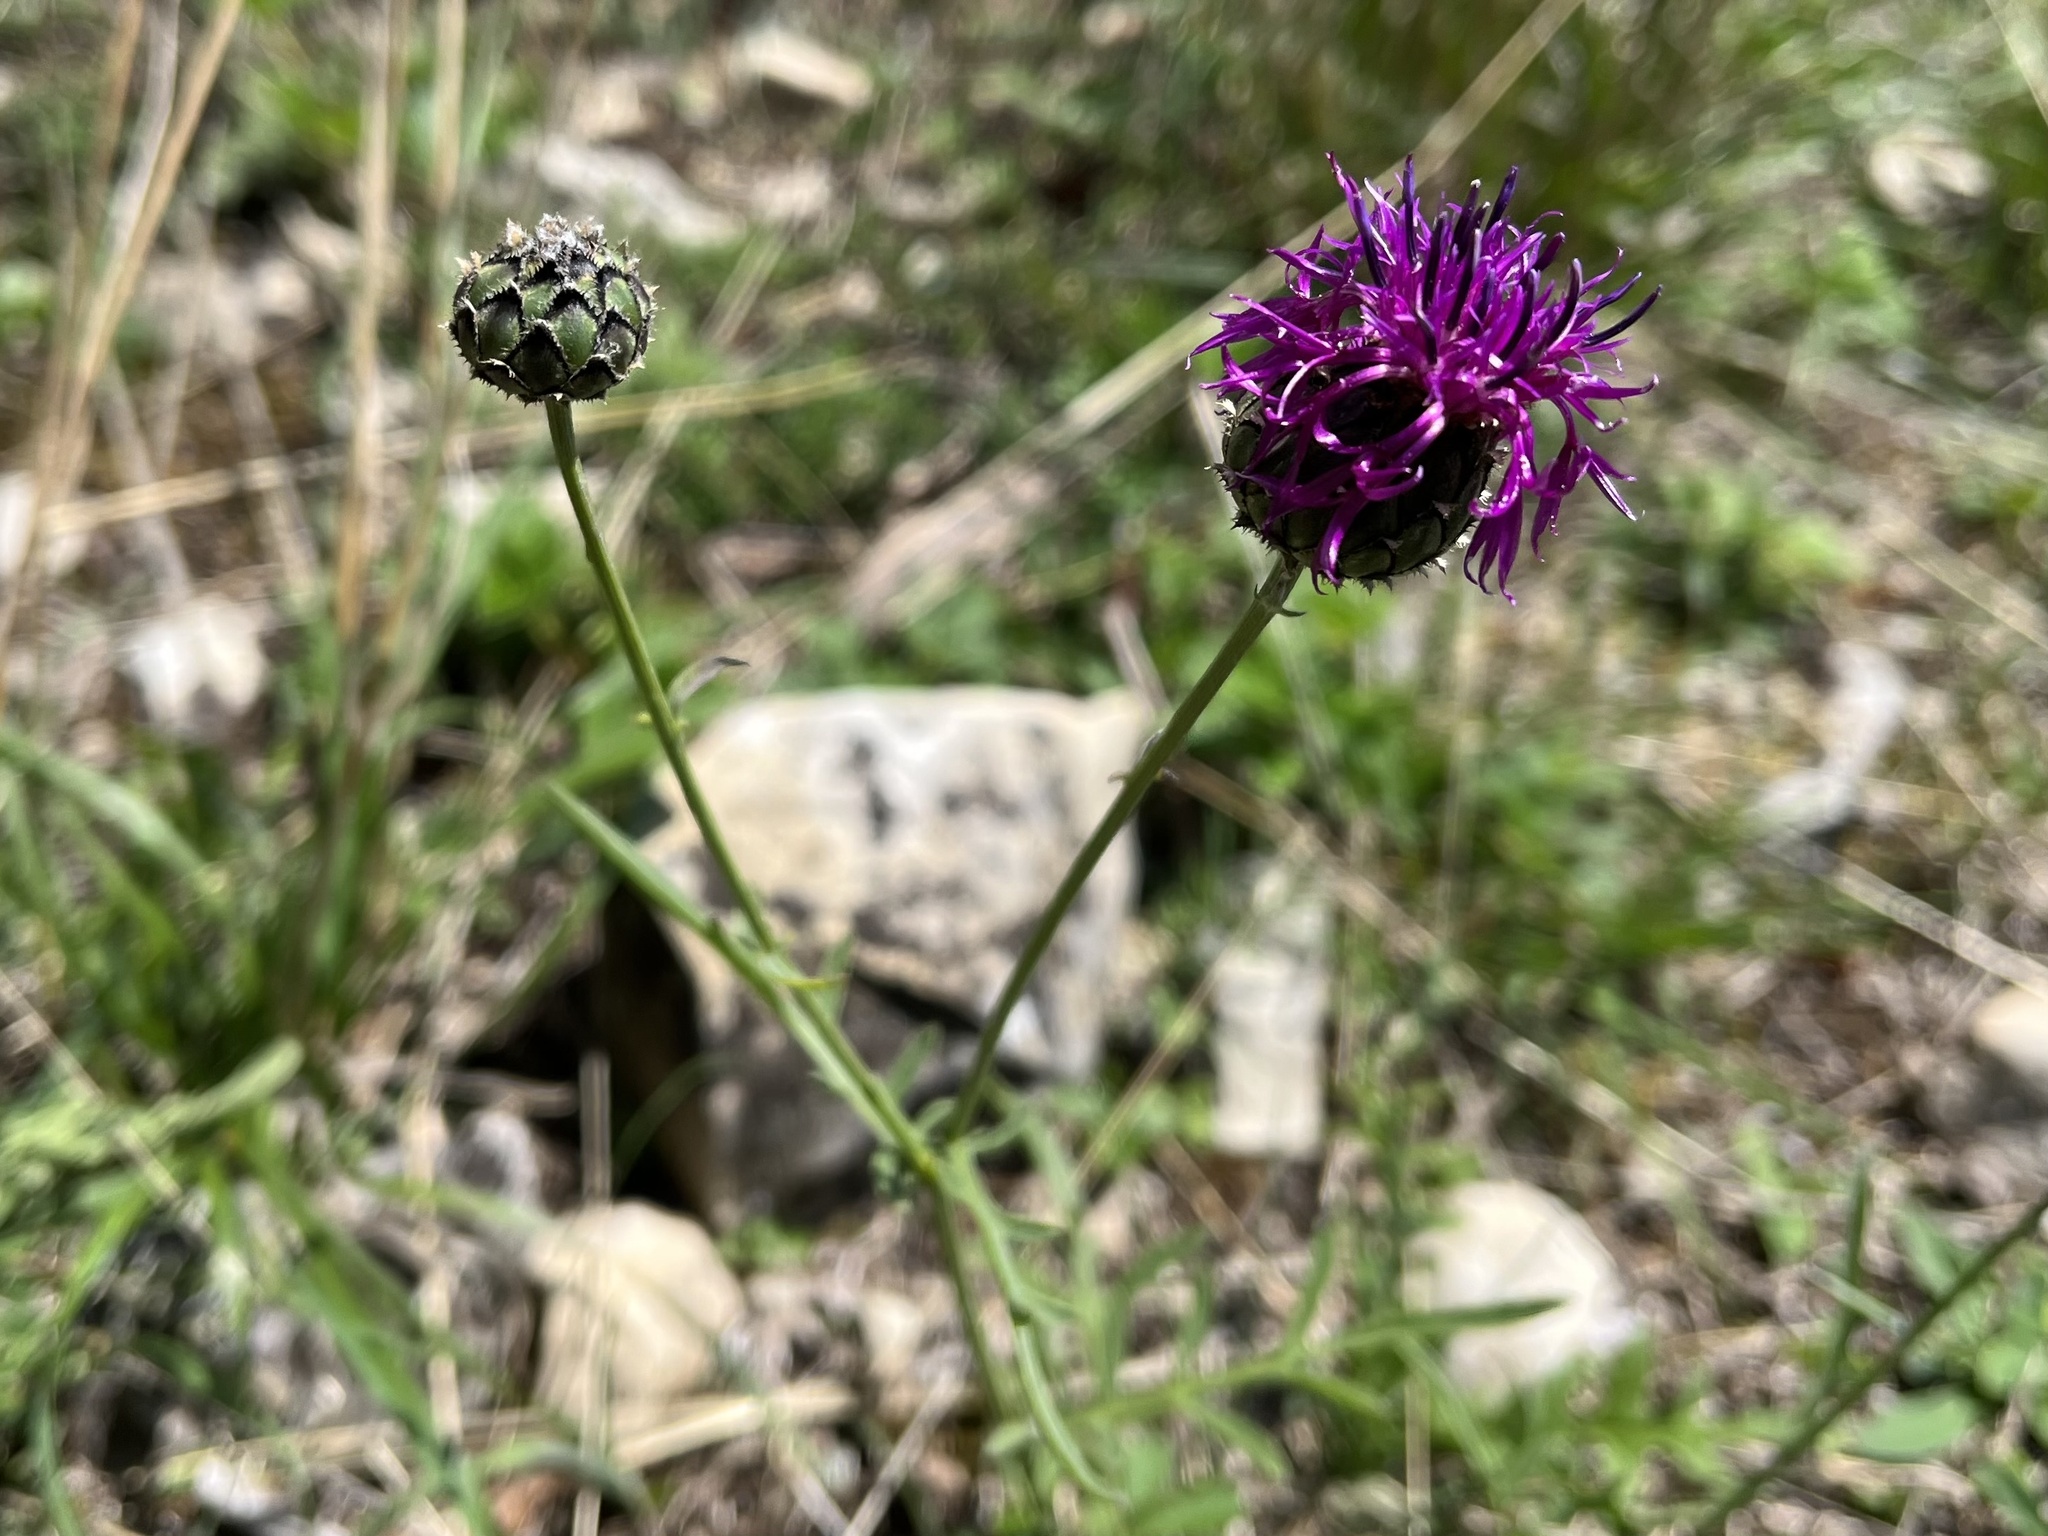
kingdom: Plantae
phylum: Tracheophyta
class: Magnoliopsida
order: Asterales
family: Asteraceae
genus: Centaurea
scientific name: Centaurea scabiosa
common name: Greater knapweed
